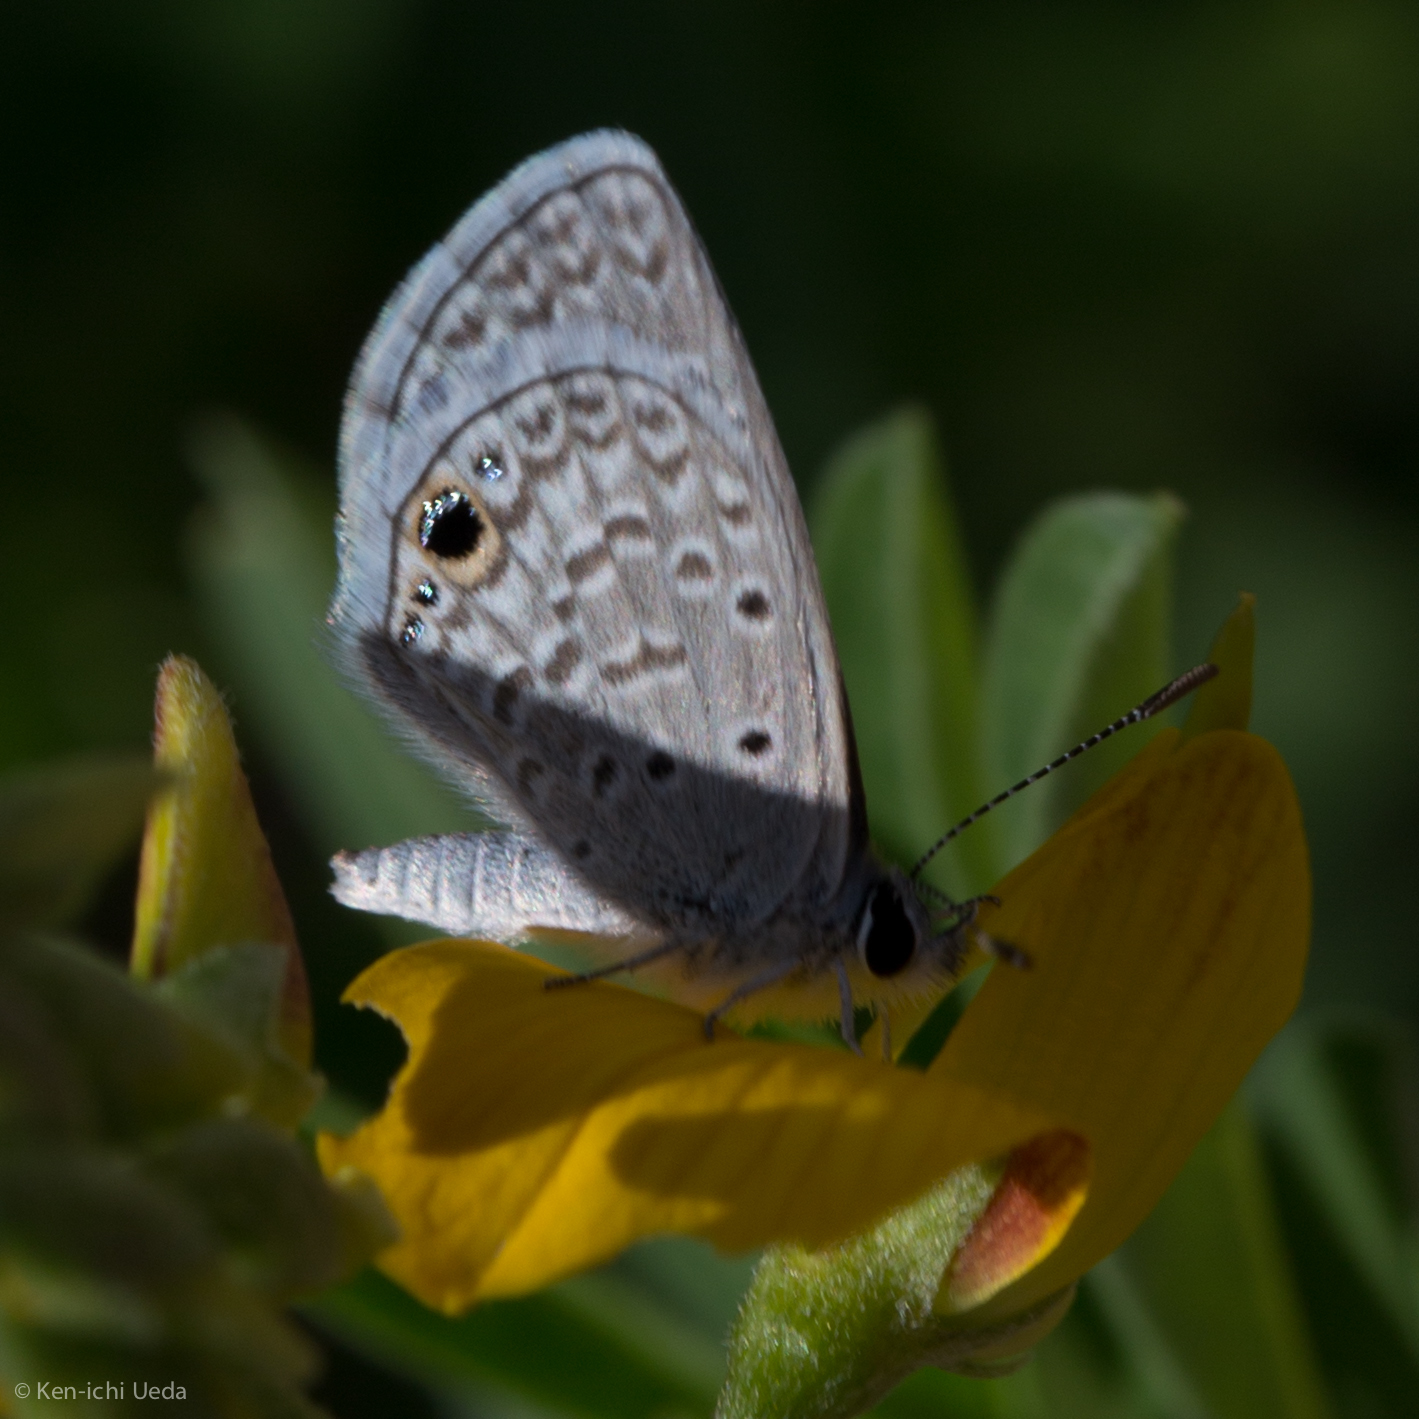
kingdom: Animalia
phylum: Arthropoda
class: Insecta
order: Lepidoptera
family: Lycaenidae
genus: Hemiargus
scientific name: Hemiargus ceraunus
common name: Ceraunus blue
